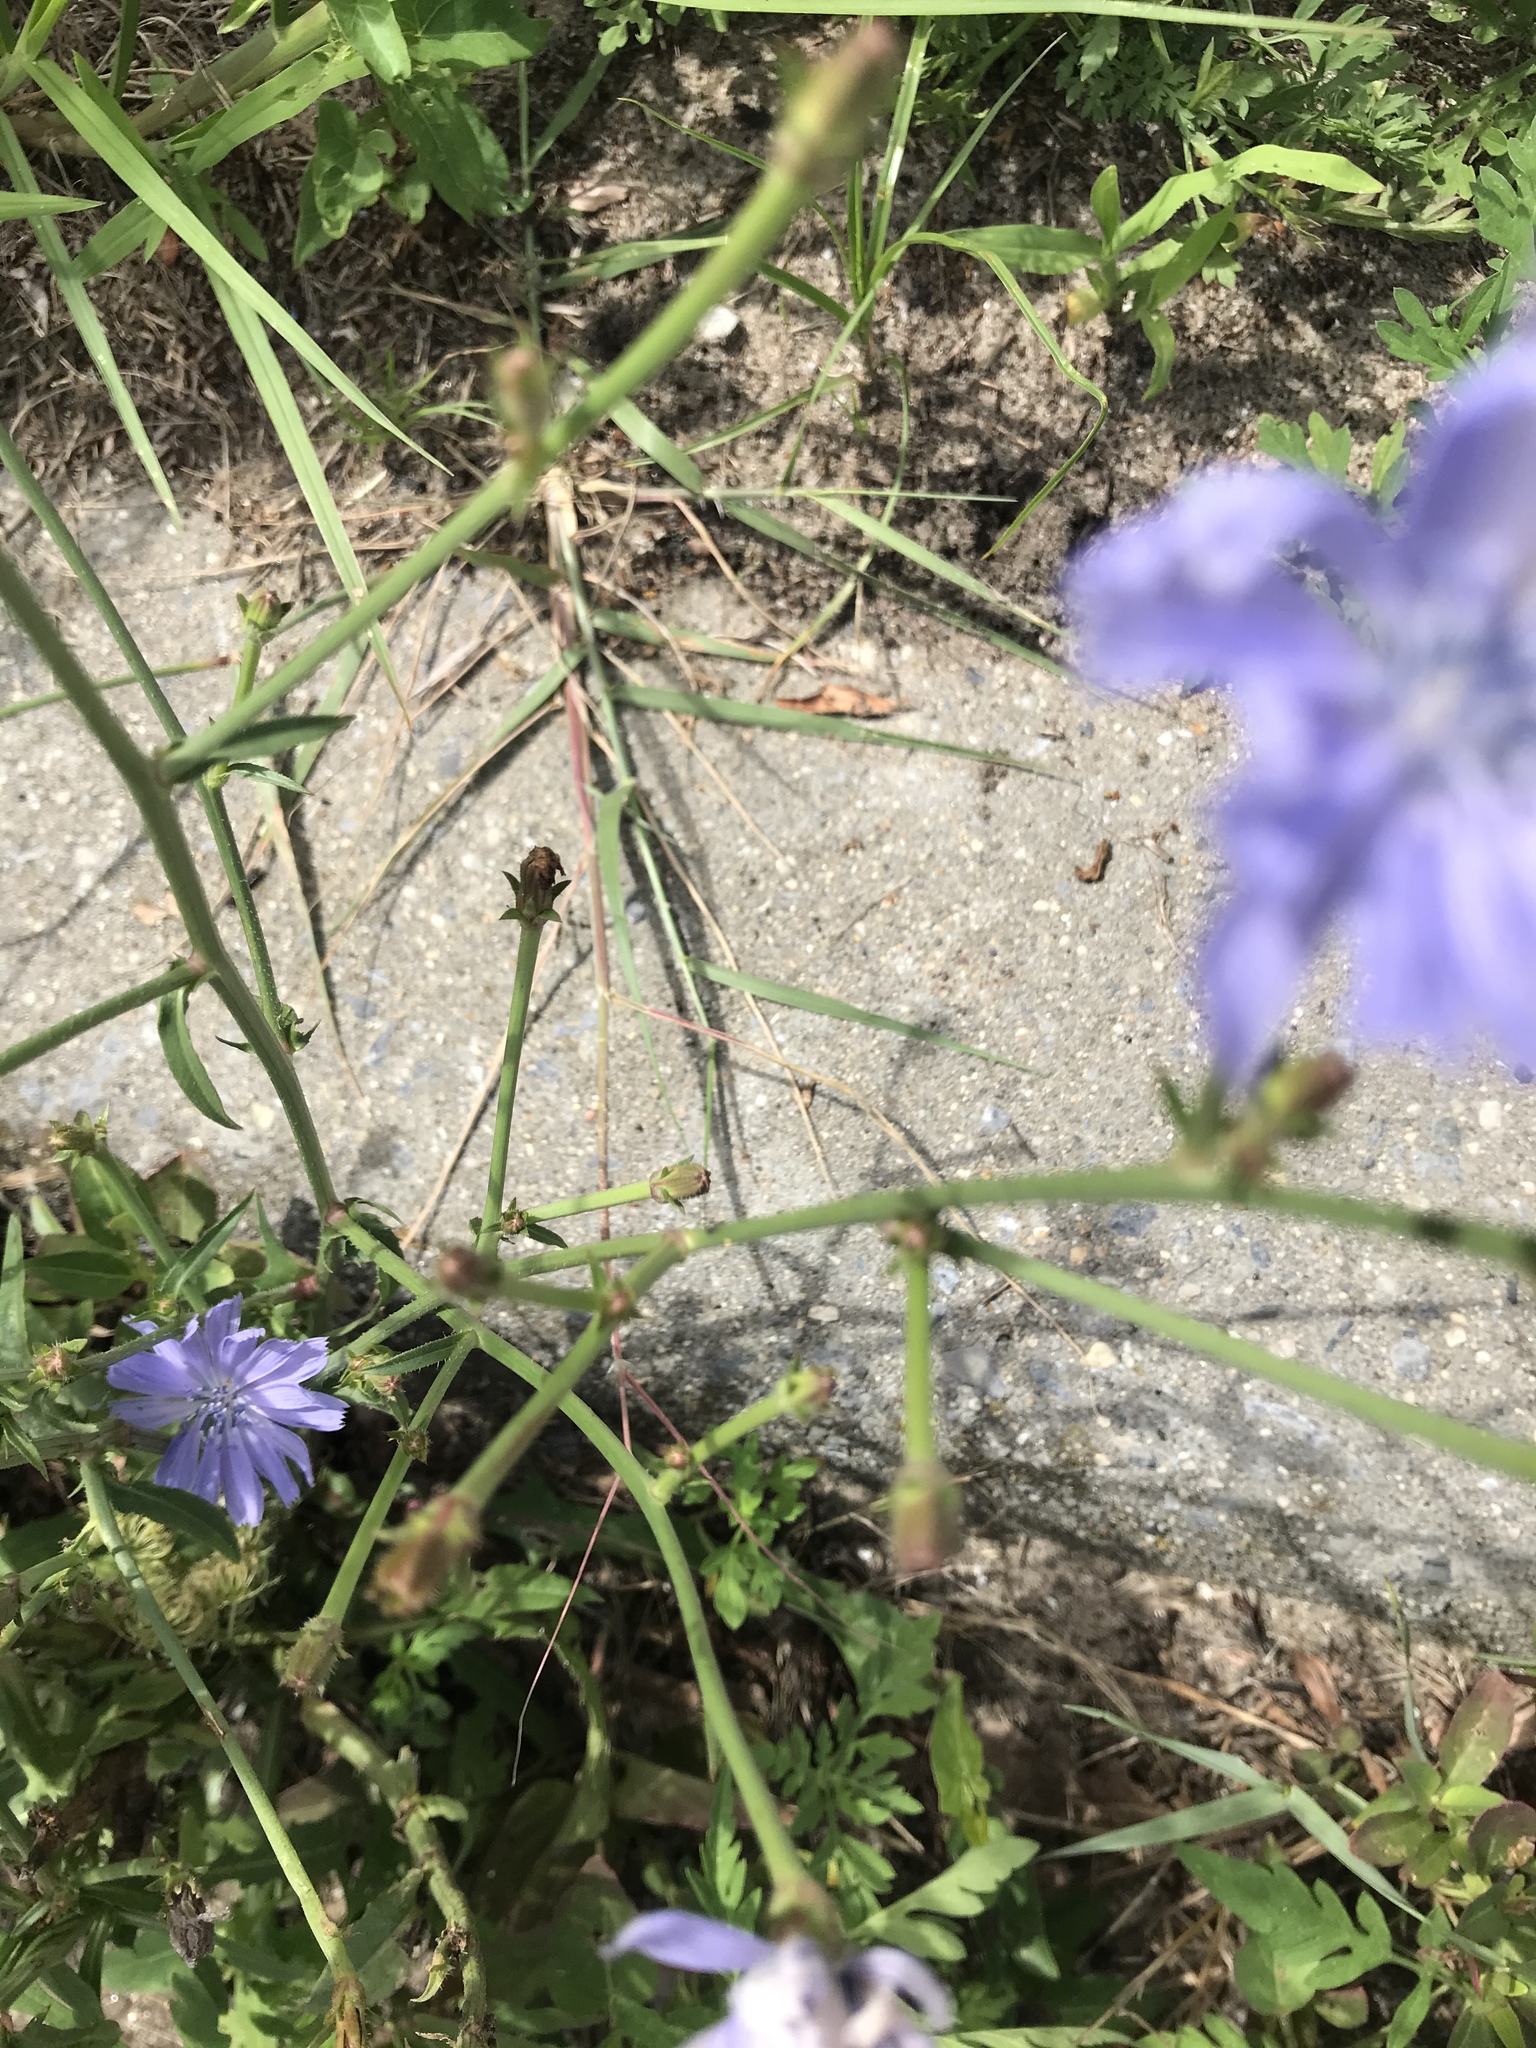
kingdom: Plantae
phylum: Tracheophyta
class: Magnoliopsida
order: Asterales
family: Asteraceae
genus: Cichorium
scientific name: Cichorium intybus
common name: Chicory
